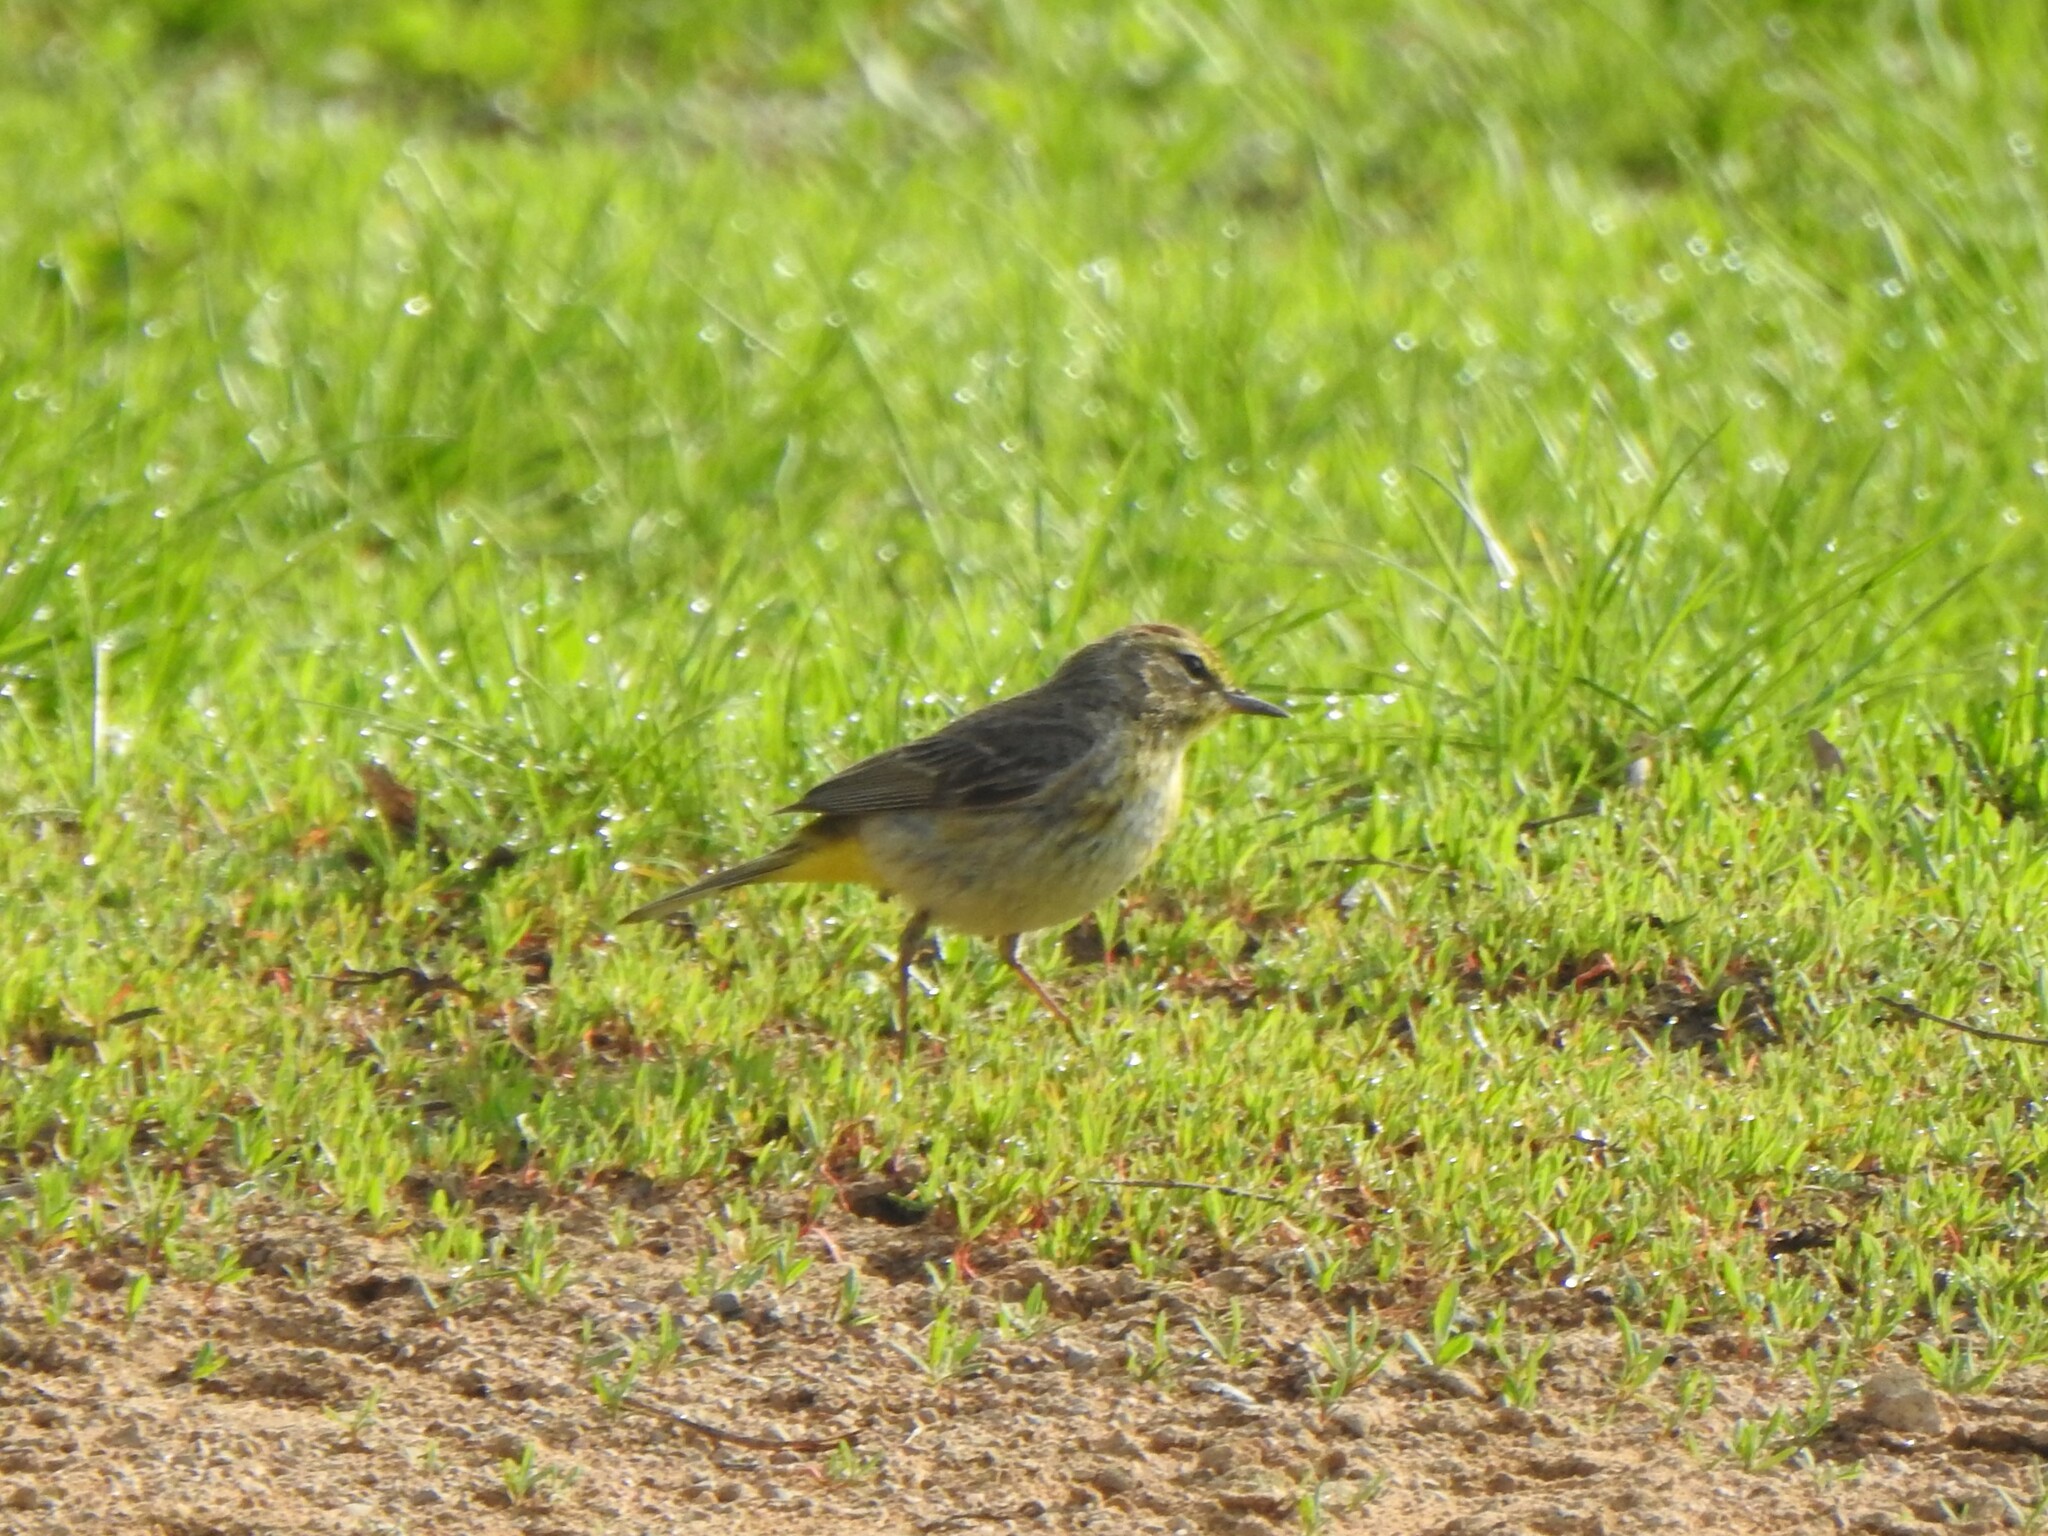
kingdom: Animalia
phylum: Chordata
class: Aves
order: Passeriformes
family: Parulidae
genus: Setophaga
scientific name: Setophaga palmarum
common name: Palm warbler
